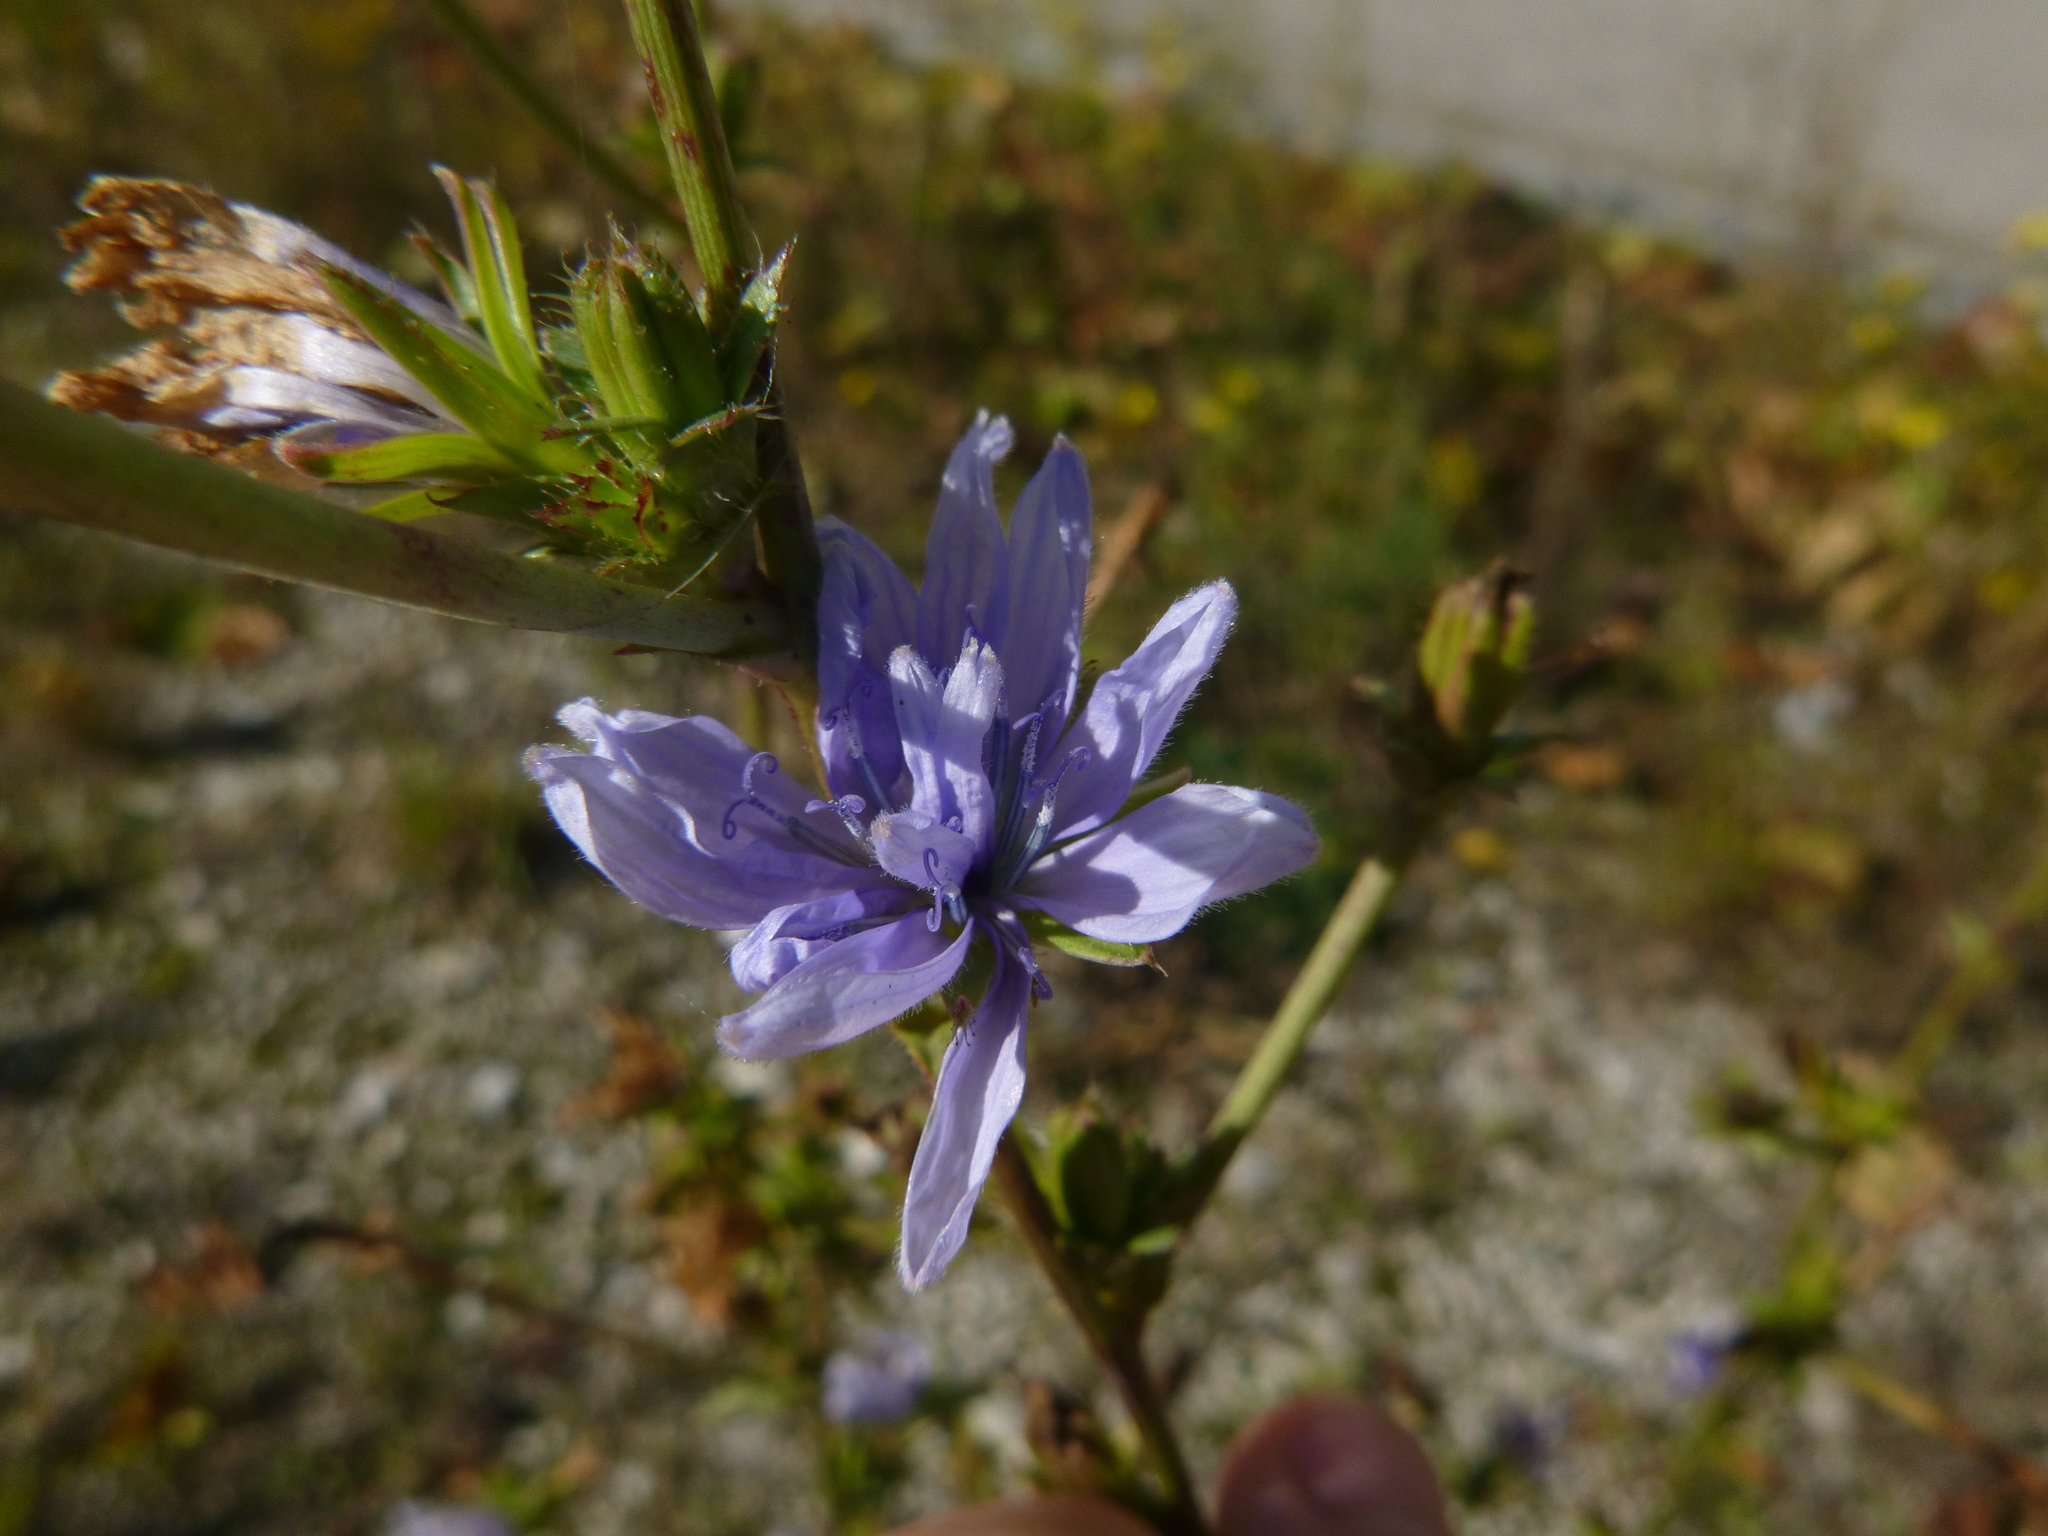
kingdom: Plantae
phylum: Tracheophyta
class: Magnoliopsida
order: Asterales
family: Asteraceae
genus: Cichorium
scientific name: Cichorium intybus
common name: Chicory
